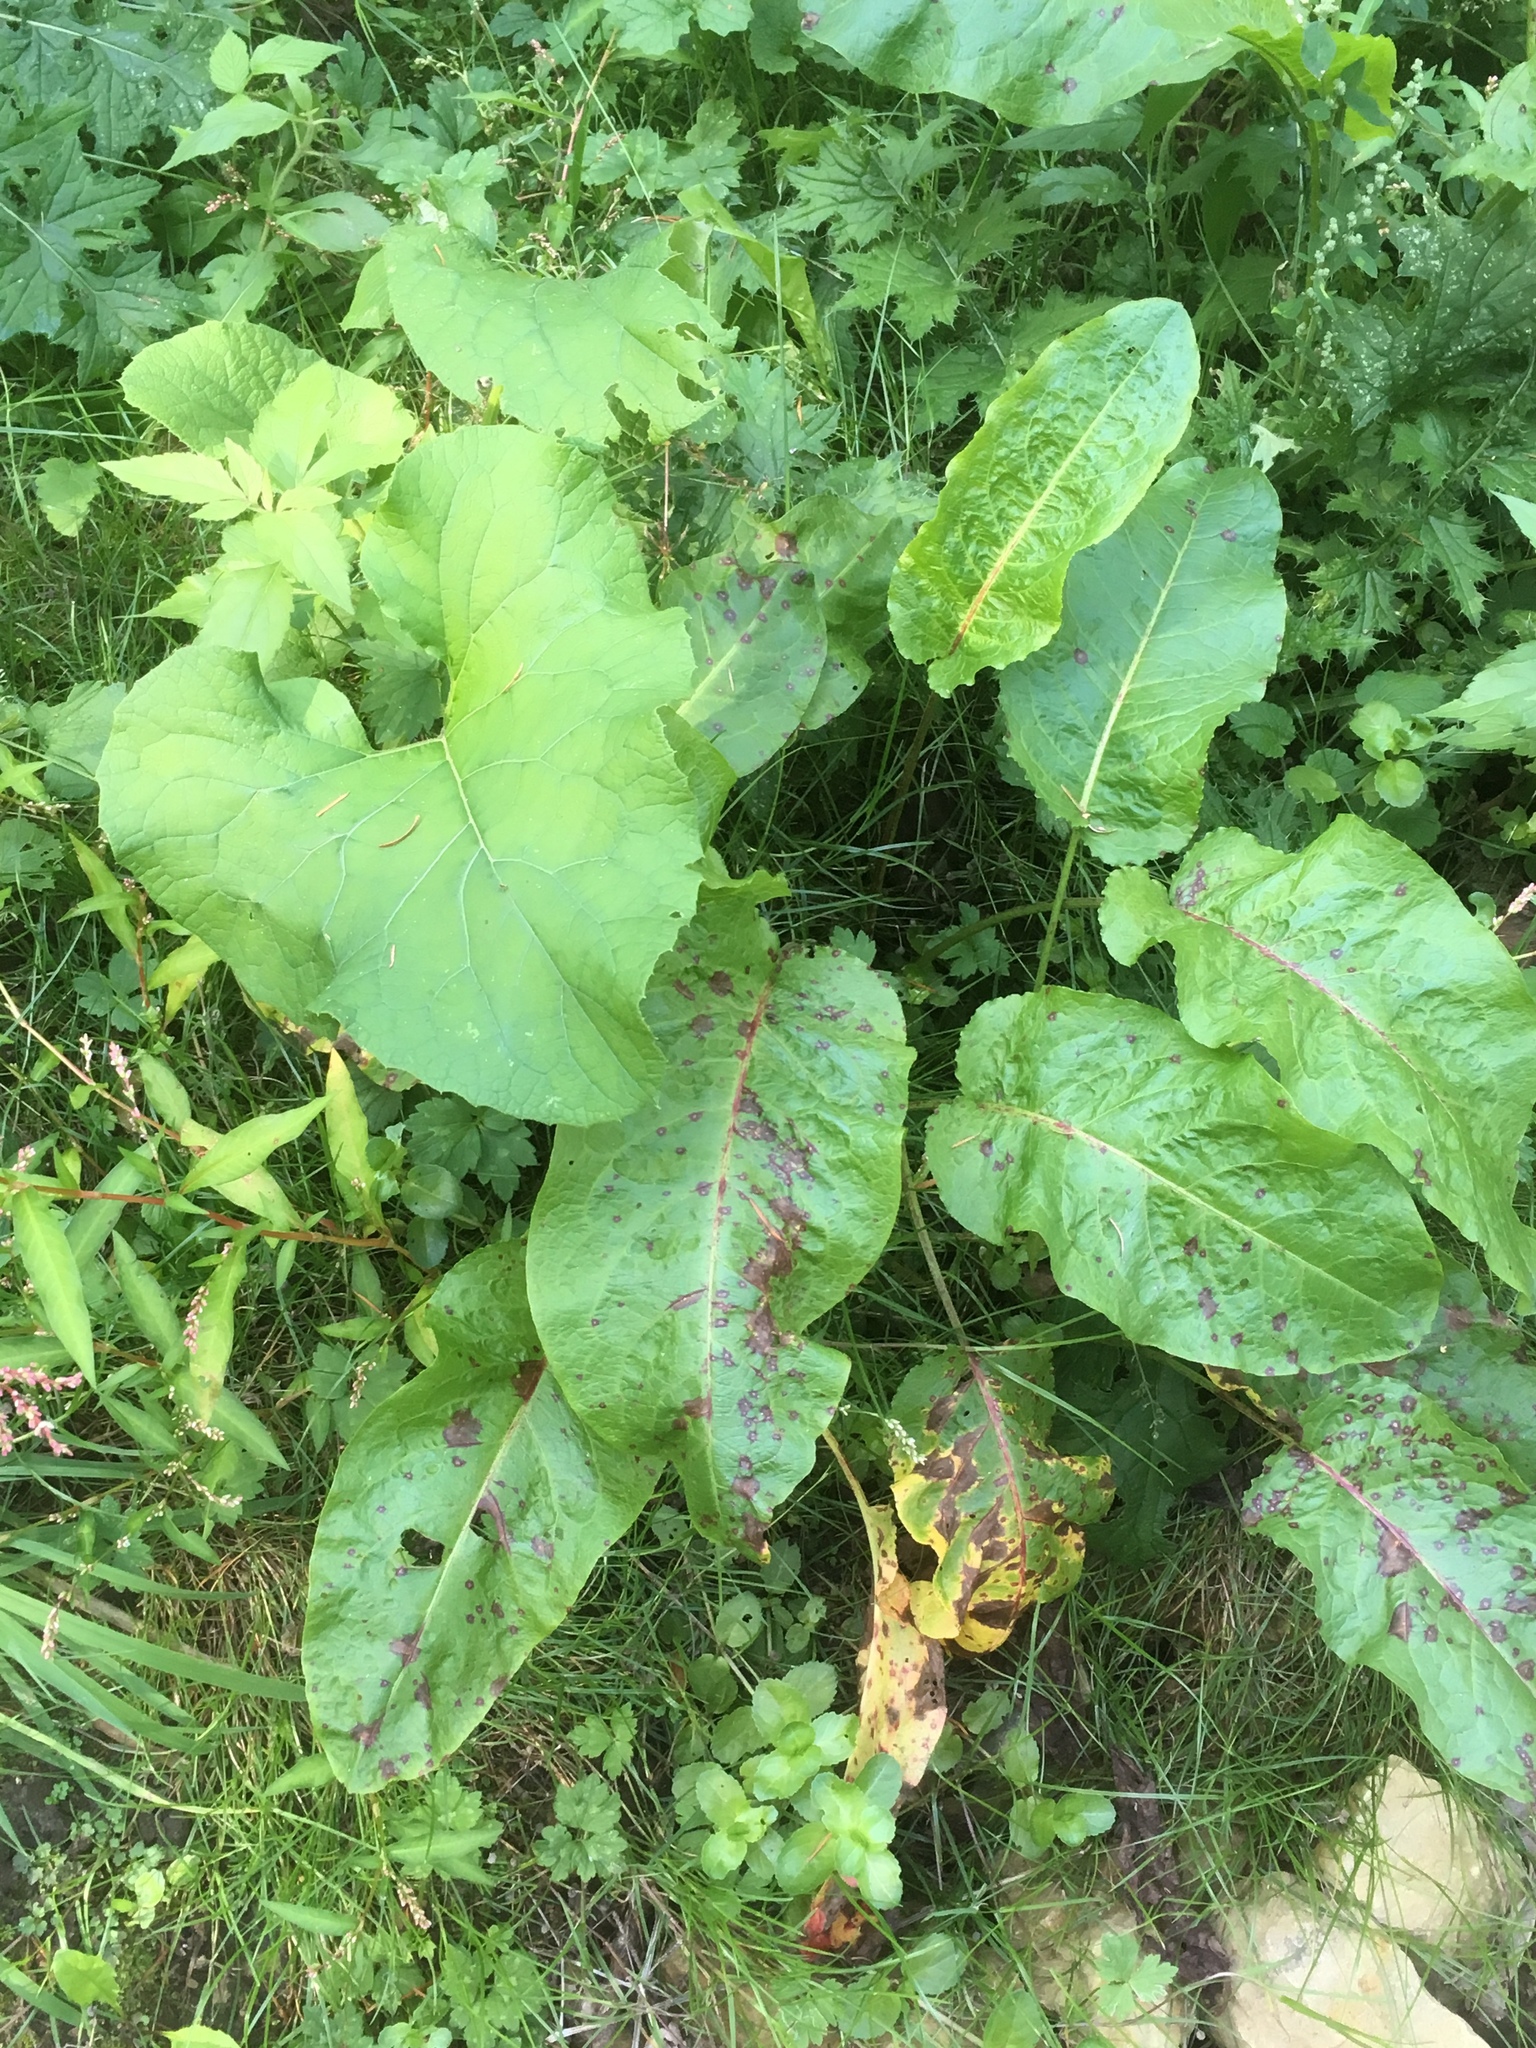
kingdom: Plantae
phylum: Tracheophyta
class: Magnoliopsida
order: Caryophyllales
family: Polygonaceae
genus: Rumex
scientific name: Rumex obtusifolius
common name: Bitter dock
